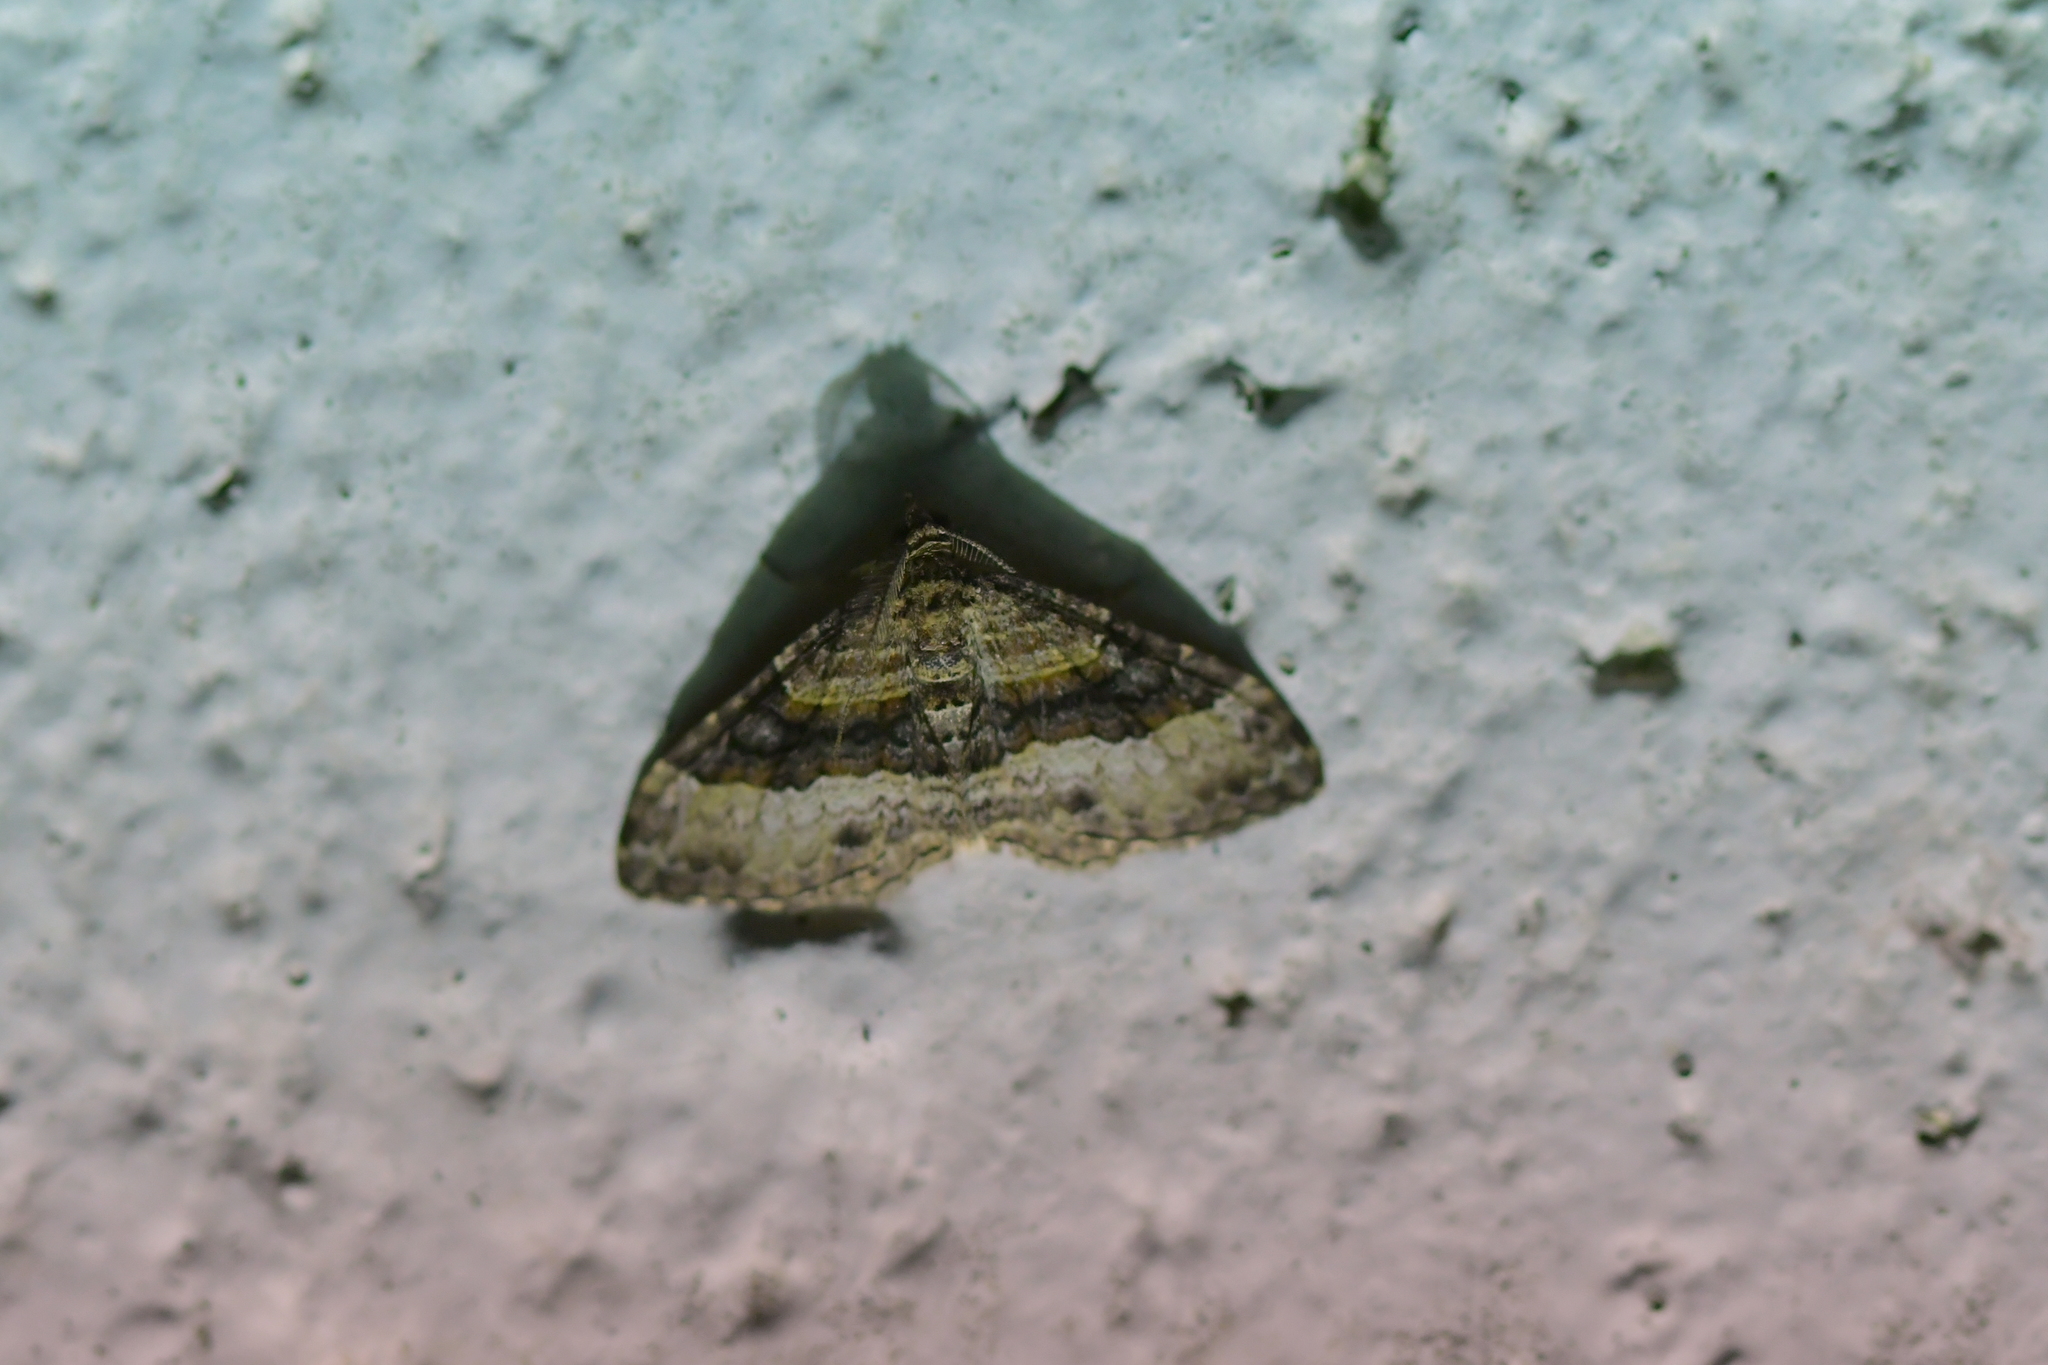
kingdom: Animalia
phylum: Arthropoda
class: Insecta
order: Lepidoptera
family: Geometridae
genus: Epyaxa
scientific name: Epyaxa lucidata
